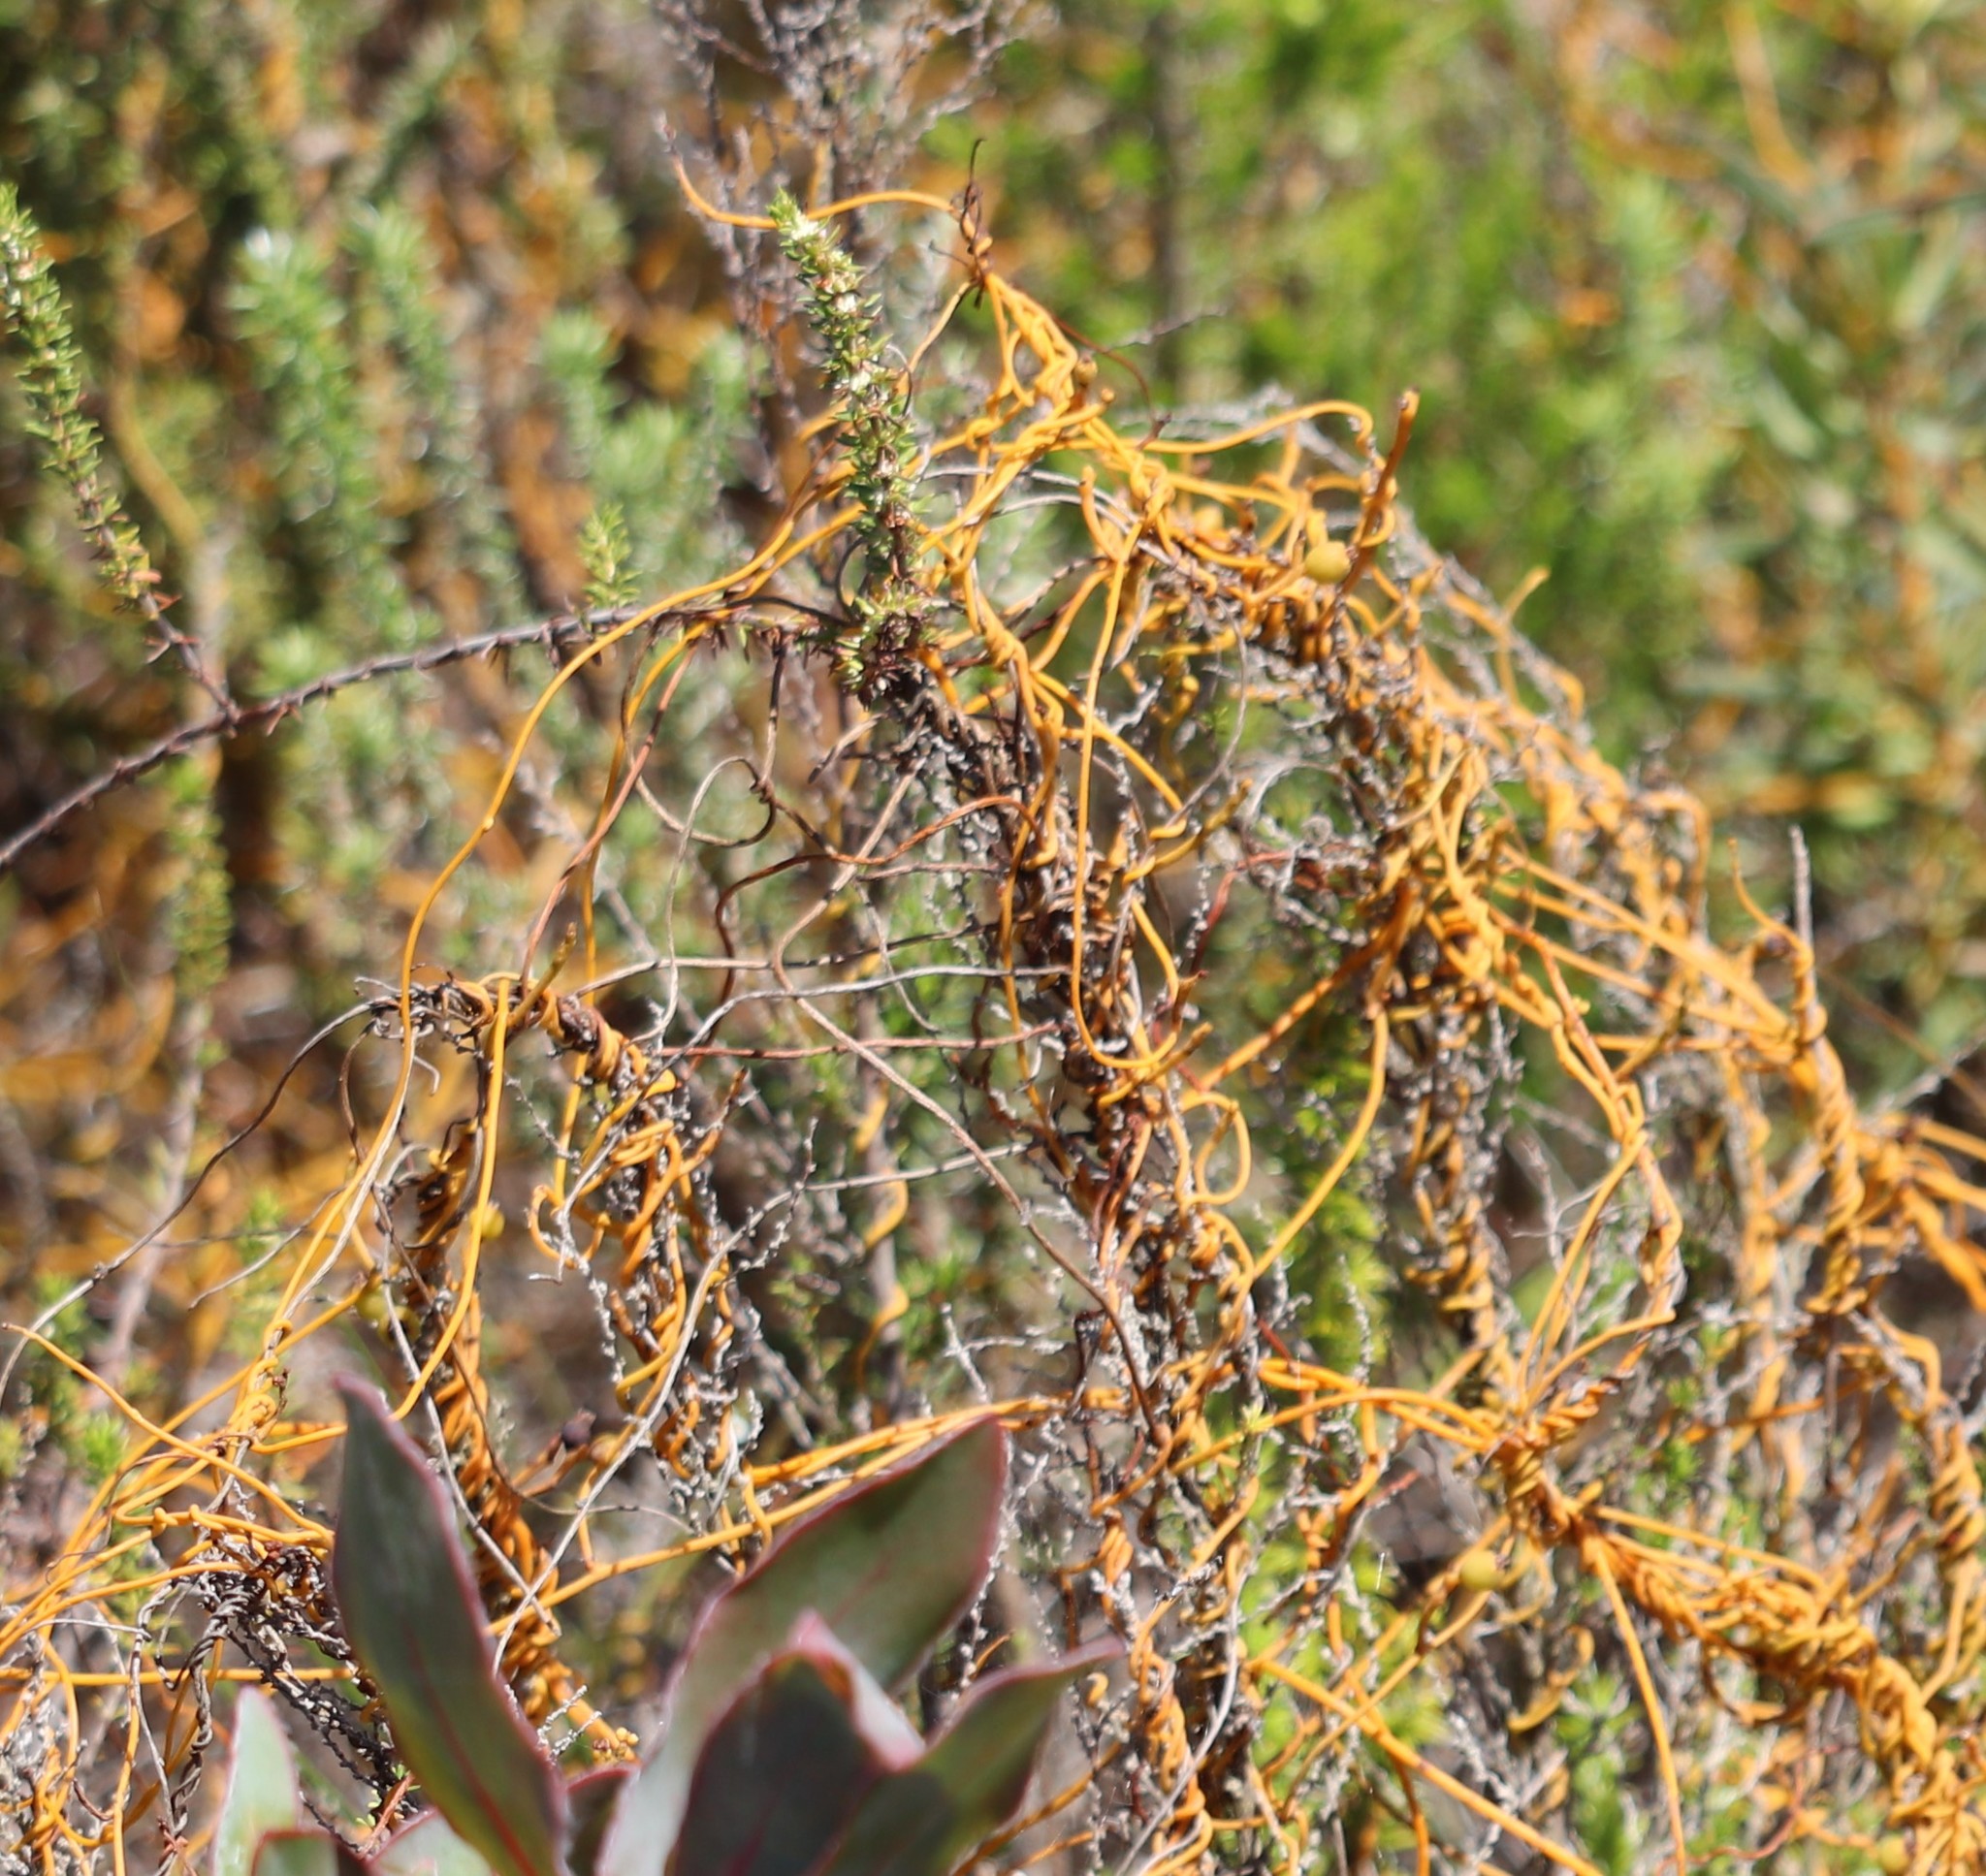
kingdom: Plantae
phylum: Tracheophyta
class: Magnoliopsida
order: Laurales
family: Lauraceae
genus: Cassytha
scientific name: Cassytha ciliolata
